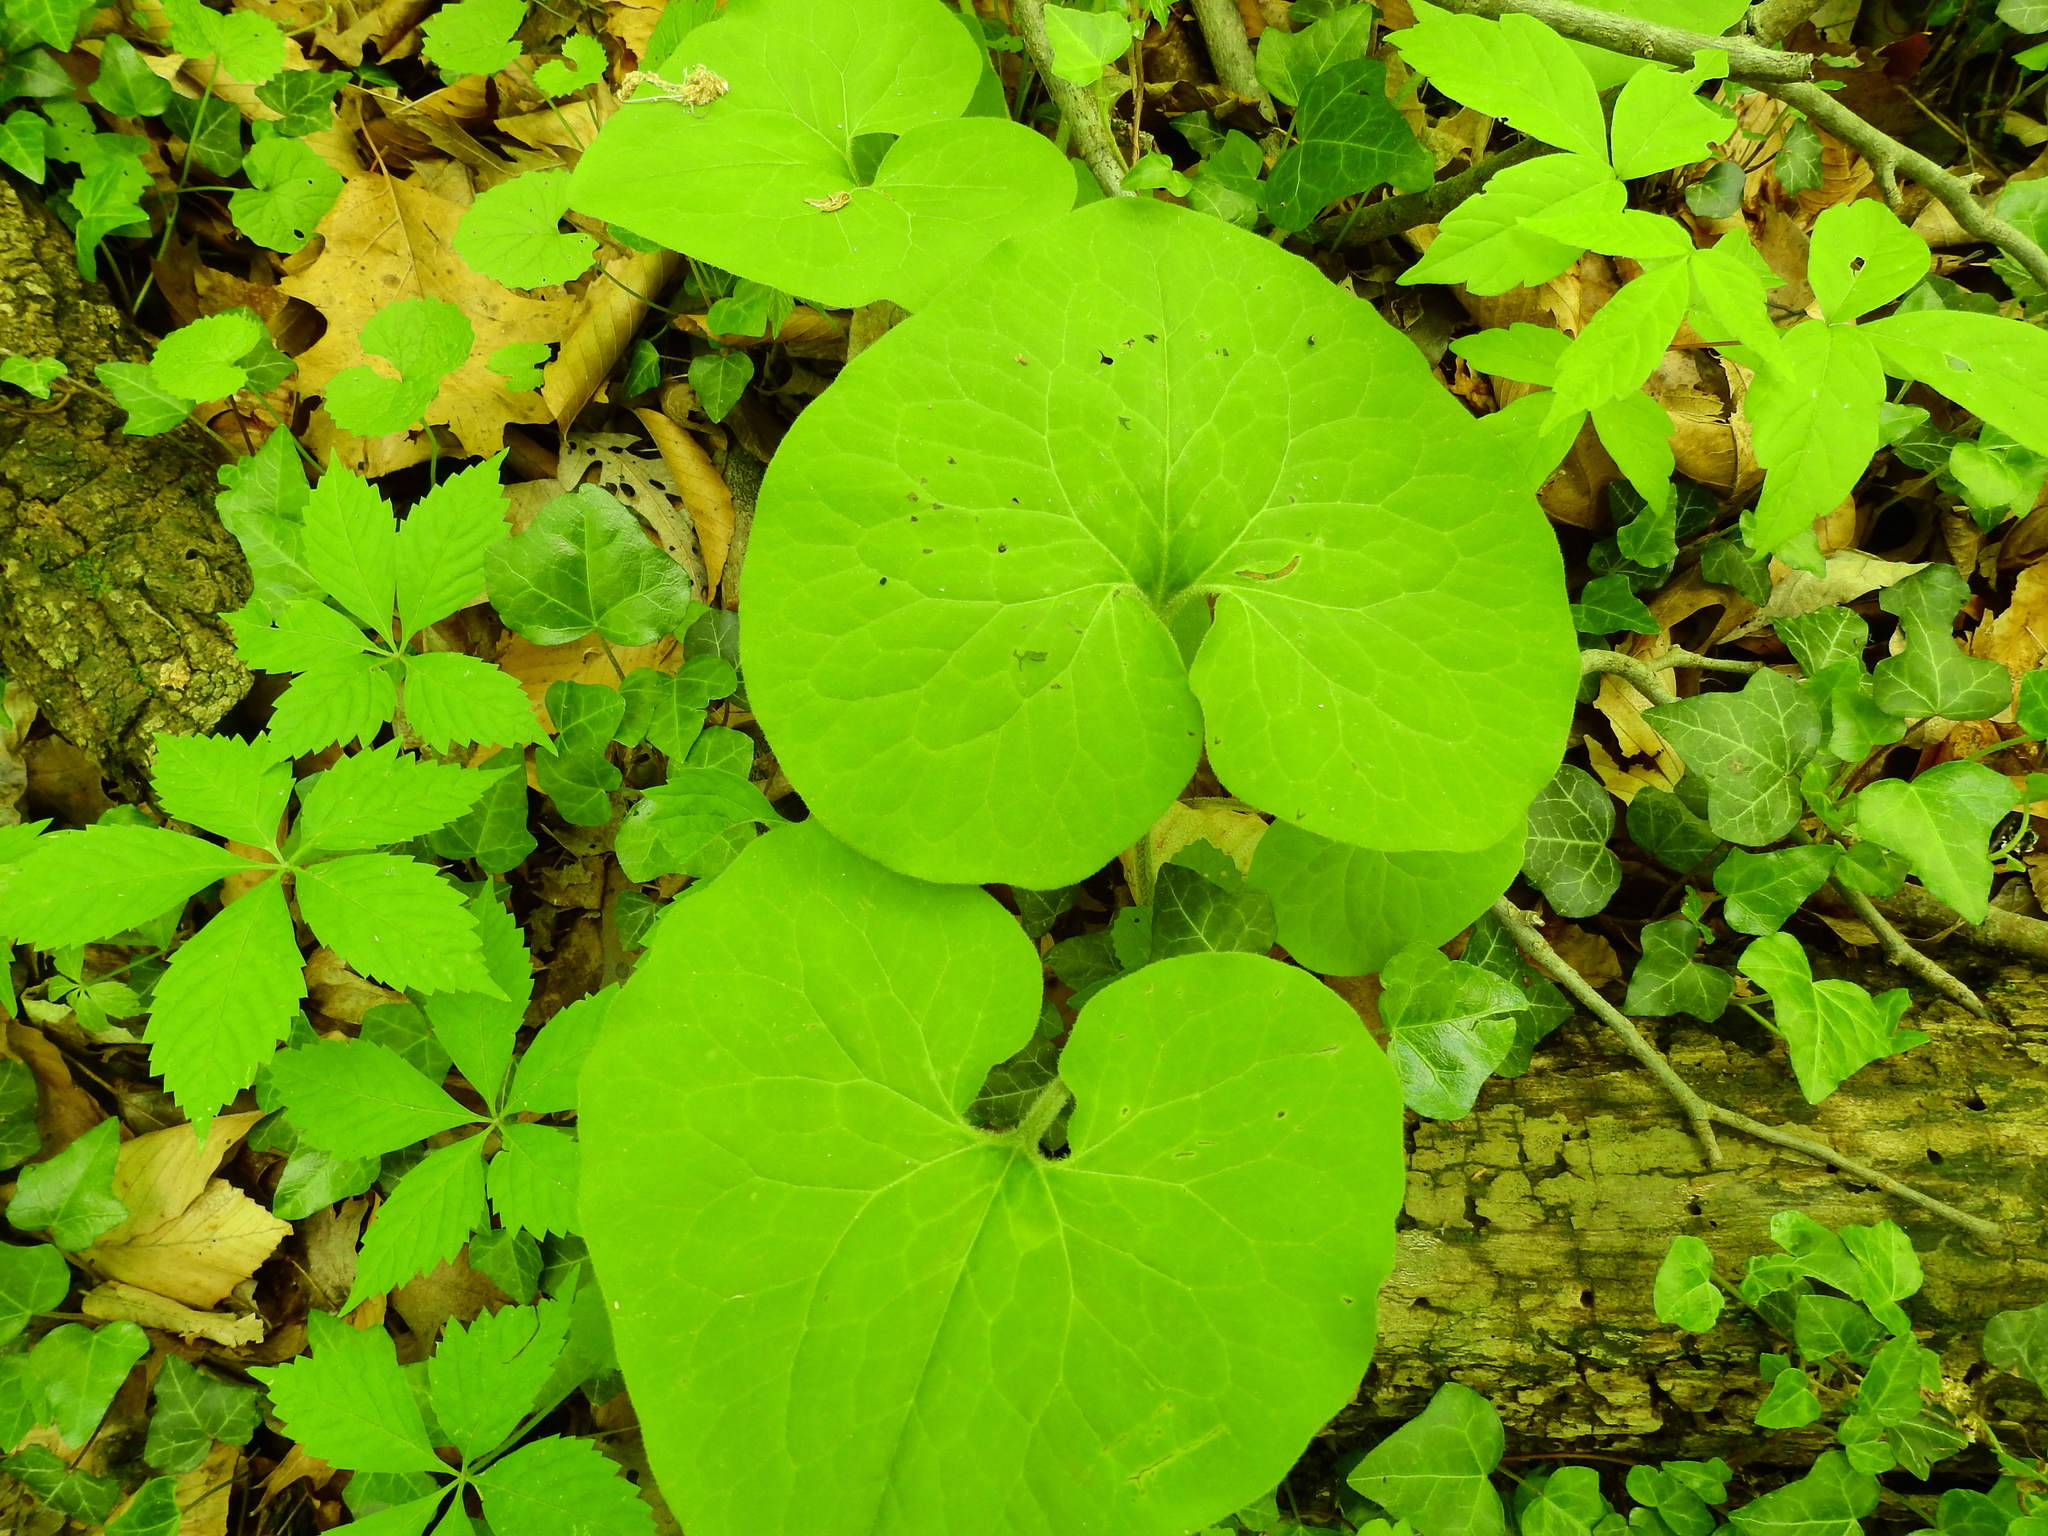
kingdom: Plantae
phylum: Tracheophyta
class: Magnoliopsida
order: Piperales
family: Aristolochiaceae
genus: Asarum
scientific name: Asarum canadense
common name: Wild ginger
